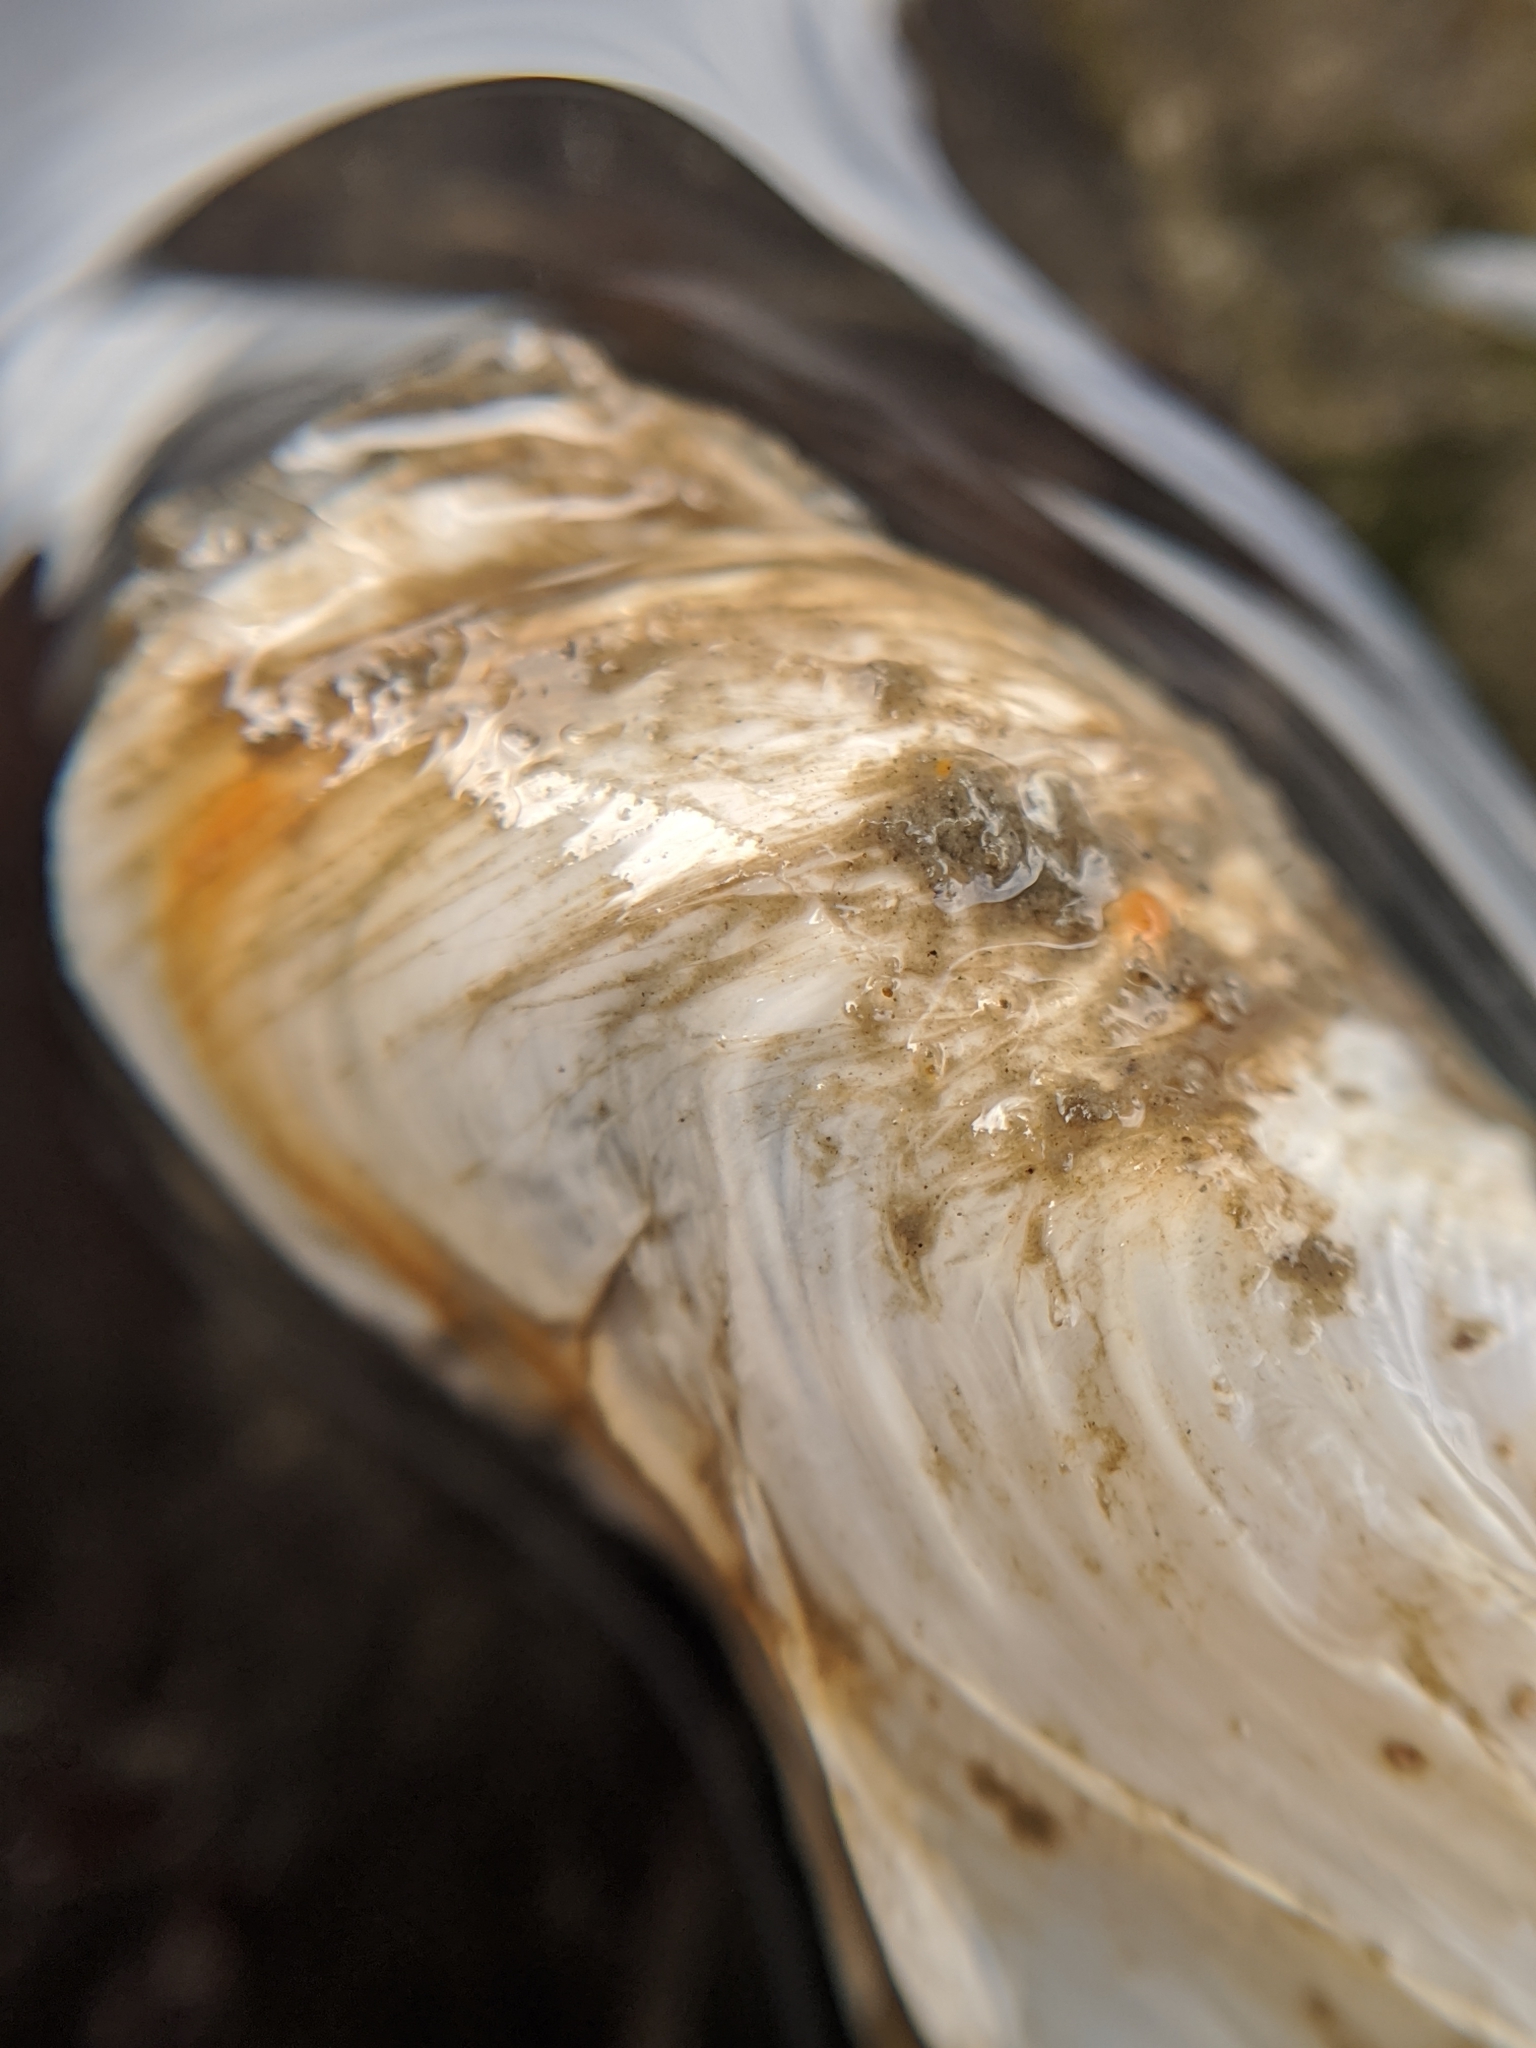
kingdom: Animalia
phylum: Mollusca
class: Bivalvia
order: Adapedonta
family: Hiatellidae
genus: Hiatella
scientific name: Hiatella arctica
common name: Arctic hiatella
